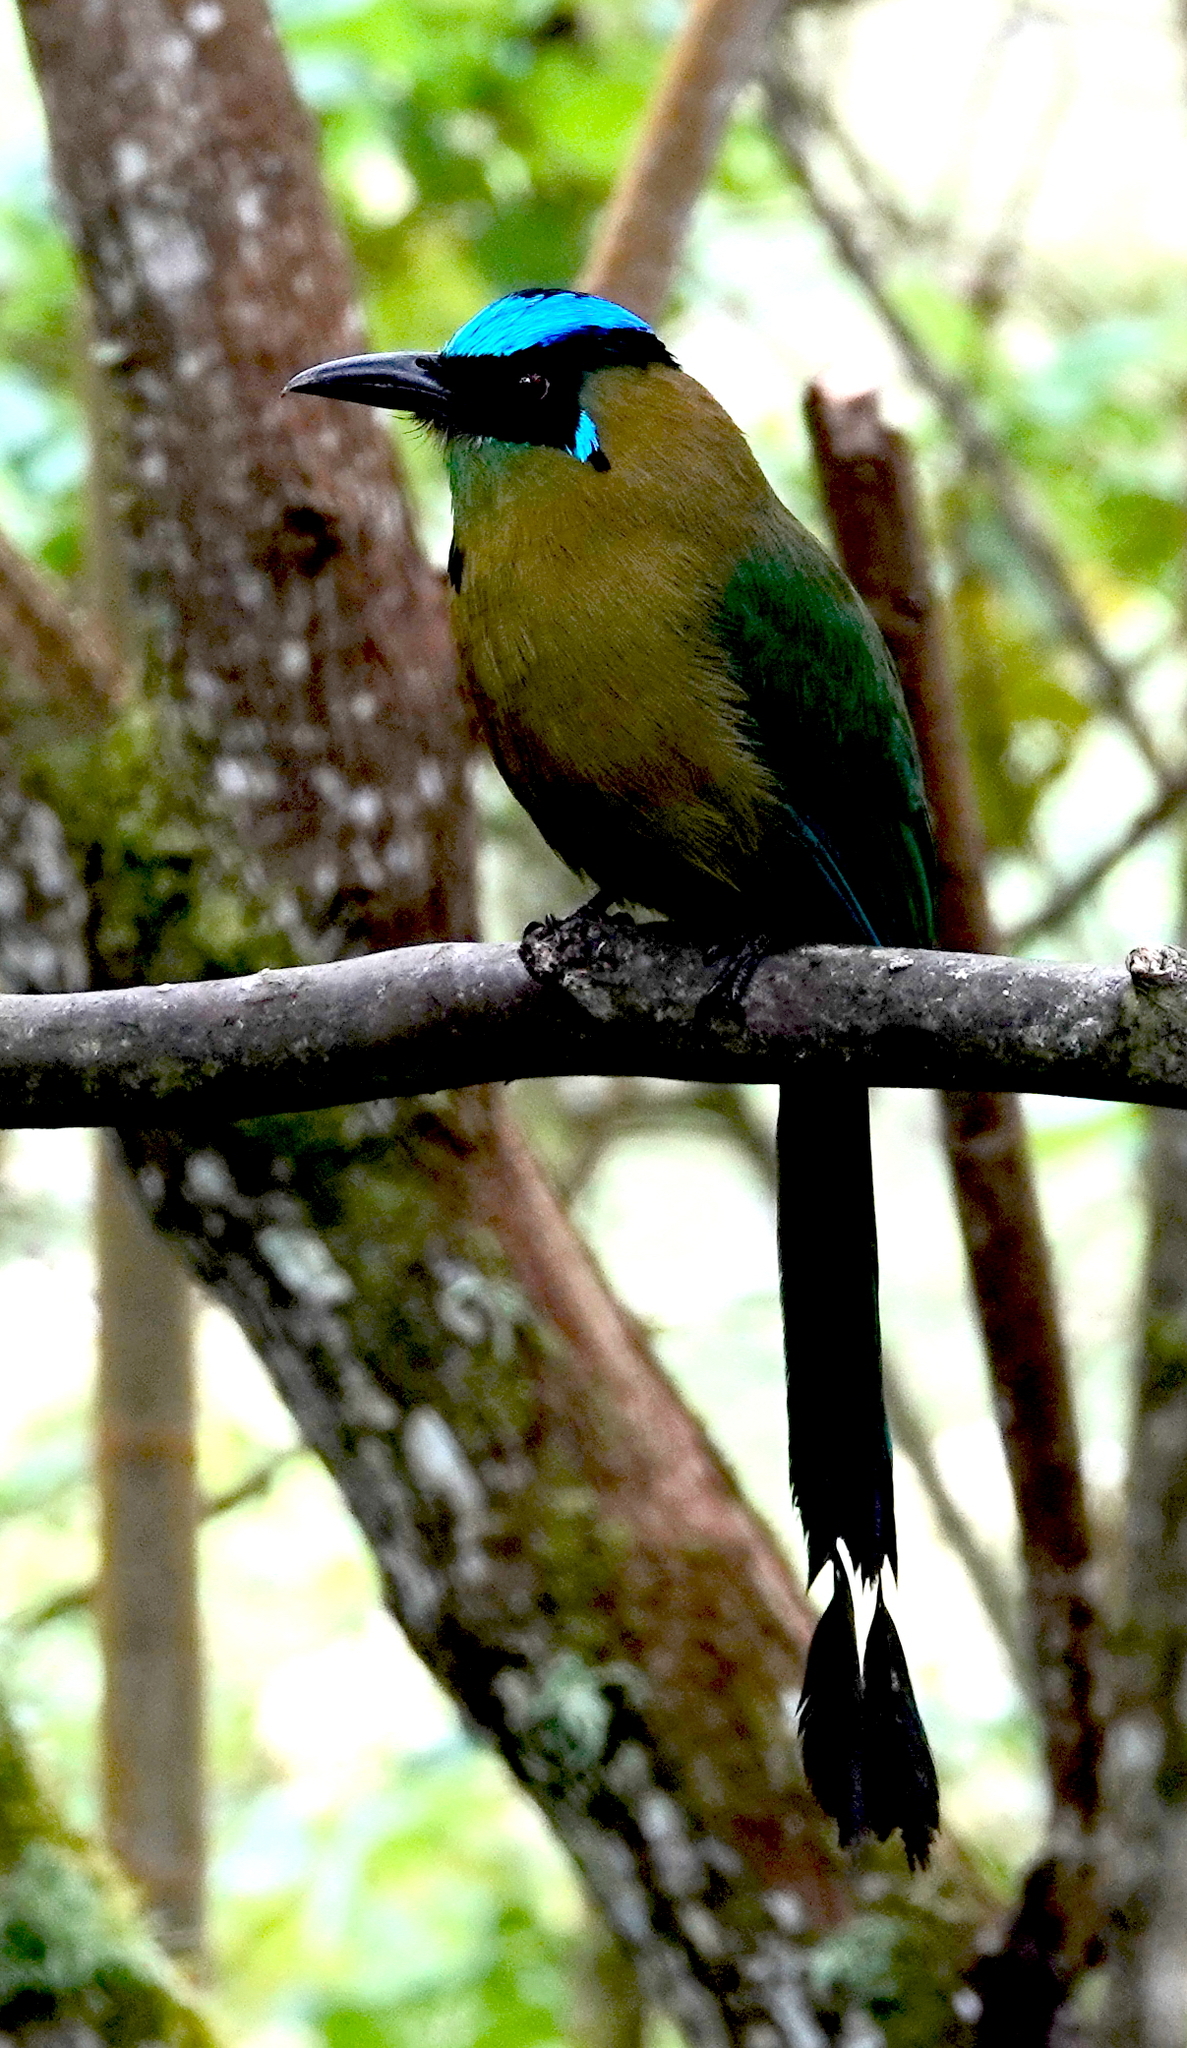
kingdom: Animalia
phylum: Chordata
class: Aves
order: Coraciiformes
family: Momotidae
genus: Momotus
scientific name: Momotus aequatorialis
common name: Andean motmot
